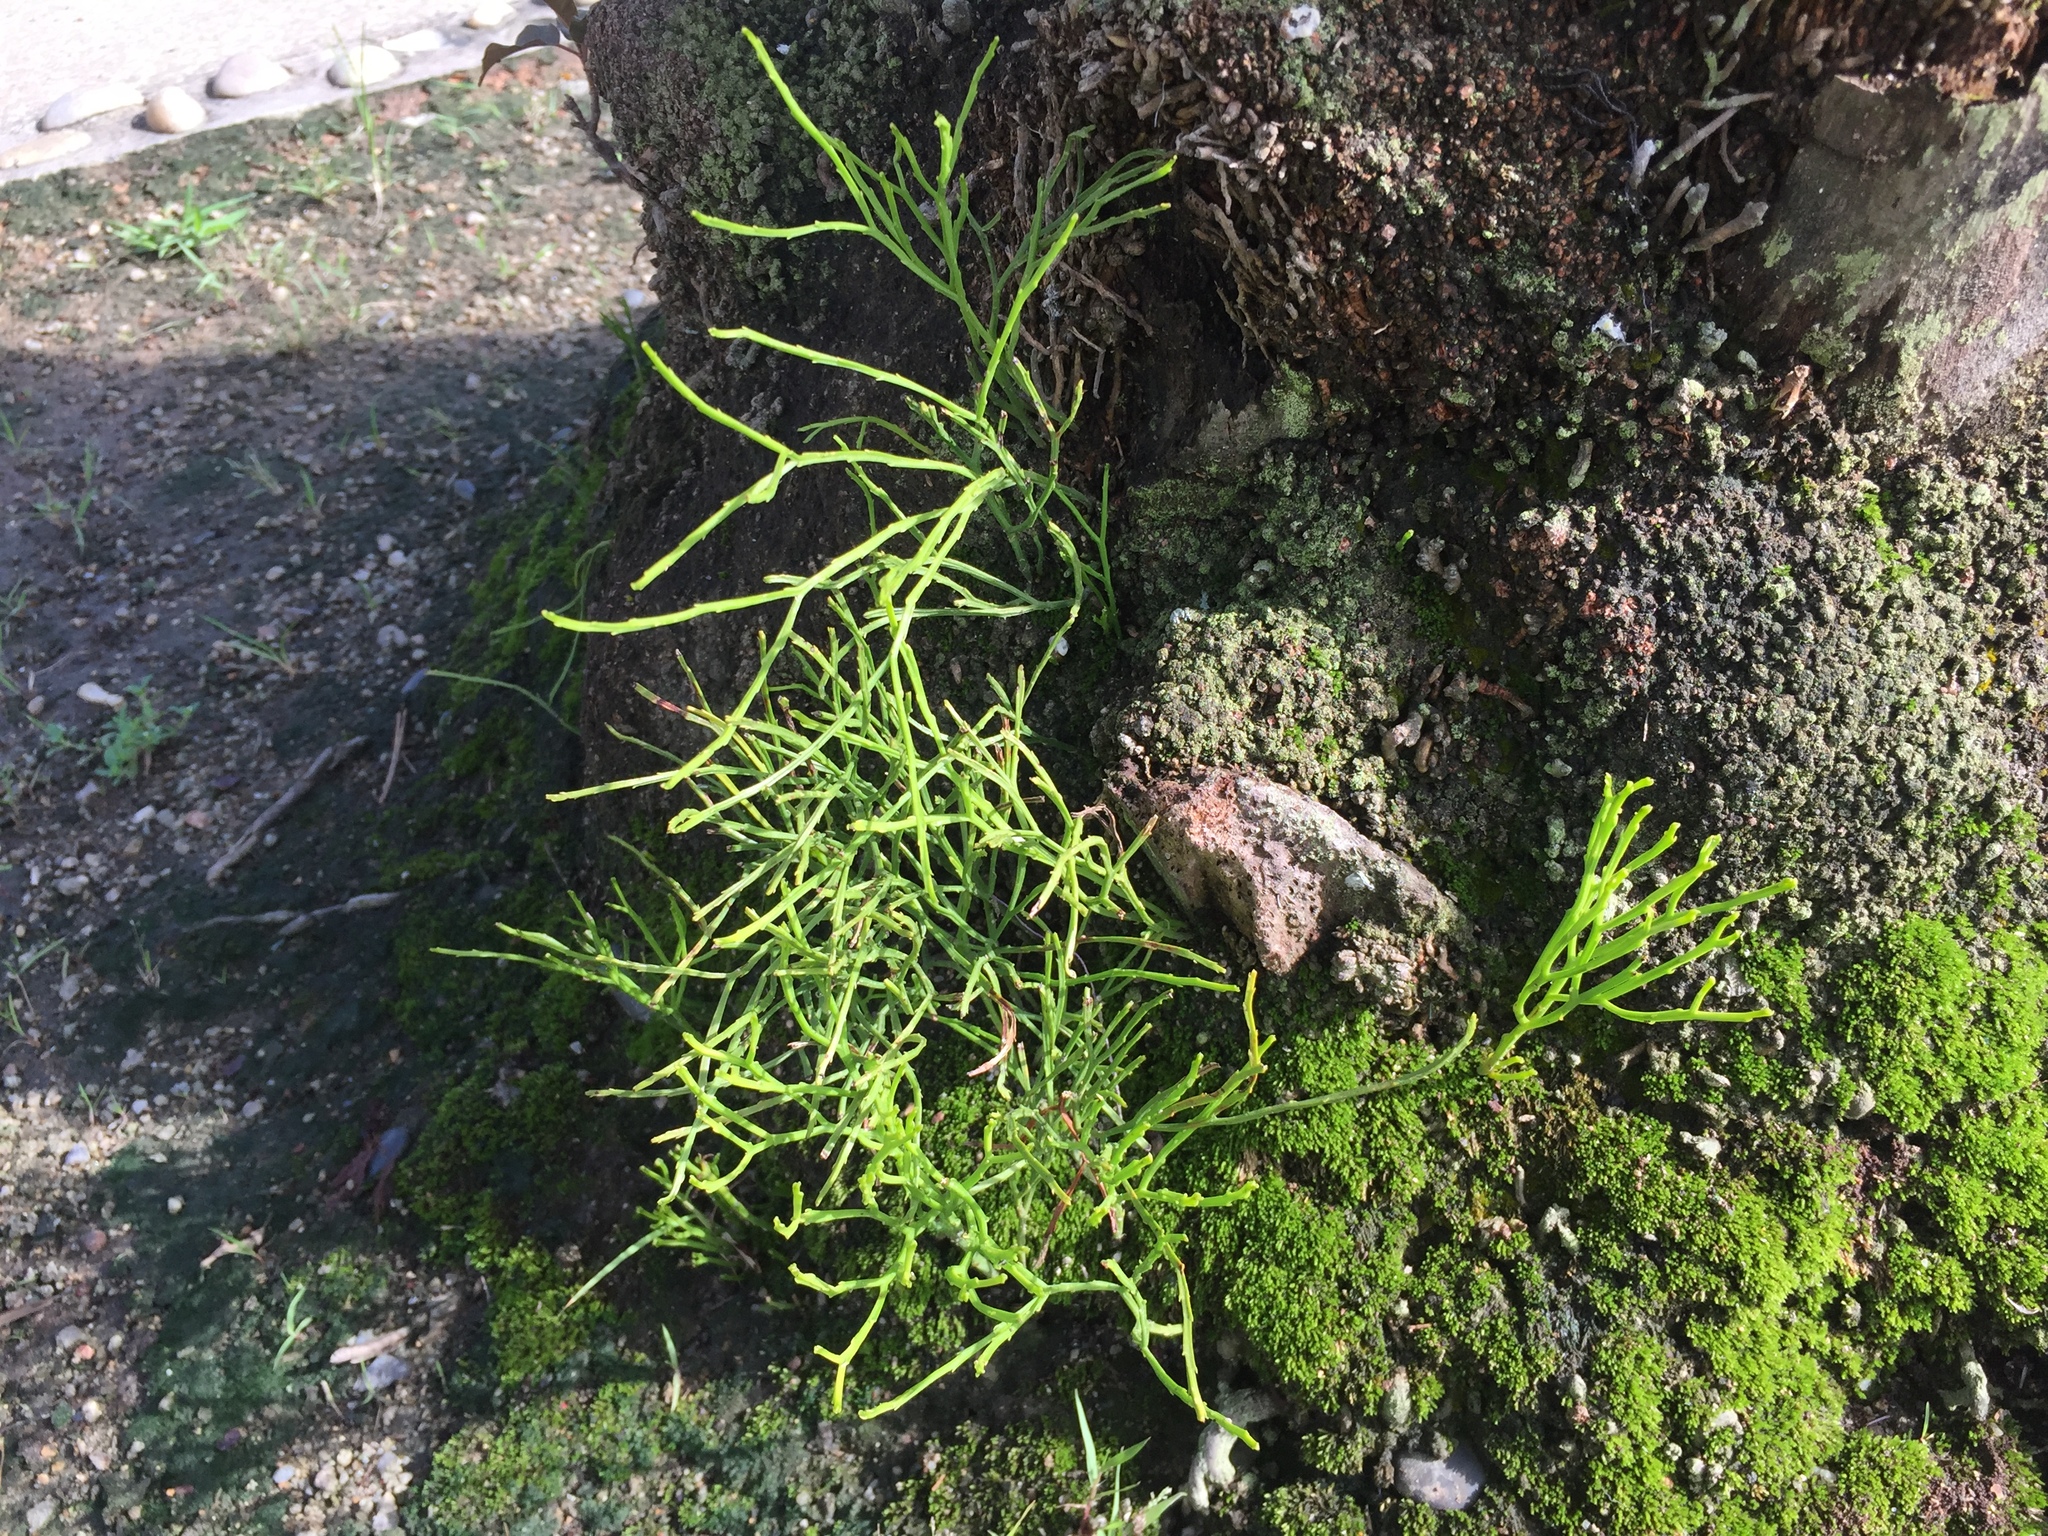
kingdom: Plantae
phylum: Tracheophyta
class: Polypodiopsida
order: Psilotales
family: Psilotaceae
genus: Psilotum
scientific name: Psilotum nudum
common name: Skeleton fork fern
